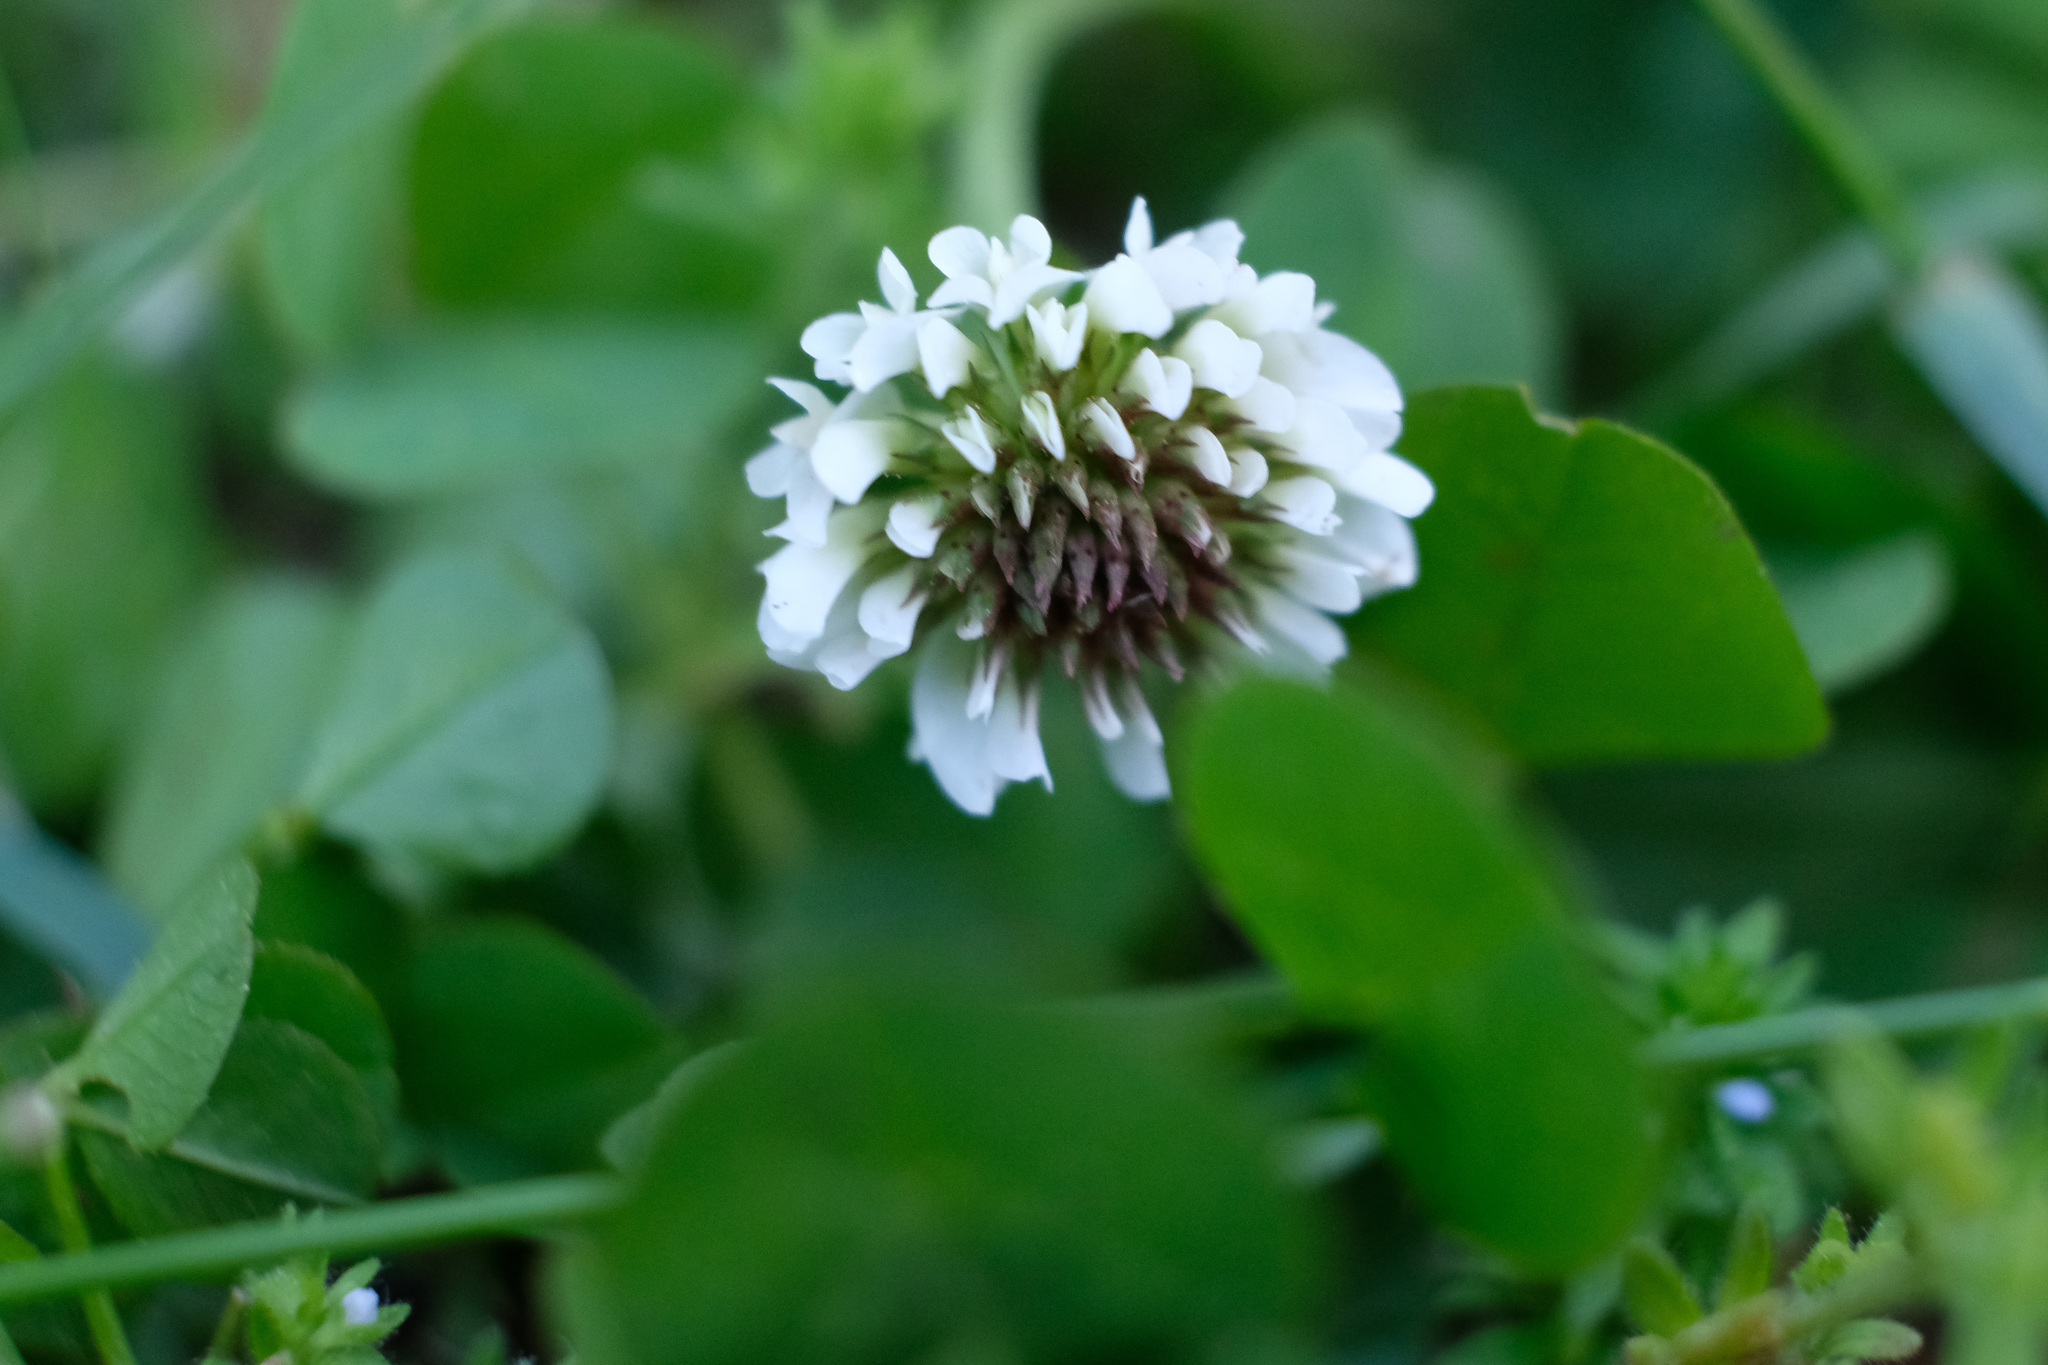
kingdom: Plantae
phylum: Tracheophyta
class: Magnoliopsida
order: Fabales
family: Fabaceae
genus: Trifolium
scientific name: Trifolium repens
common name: White clover
